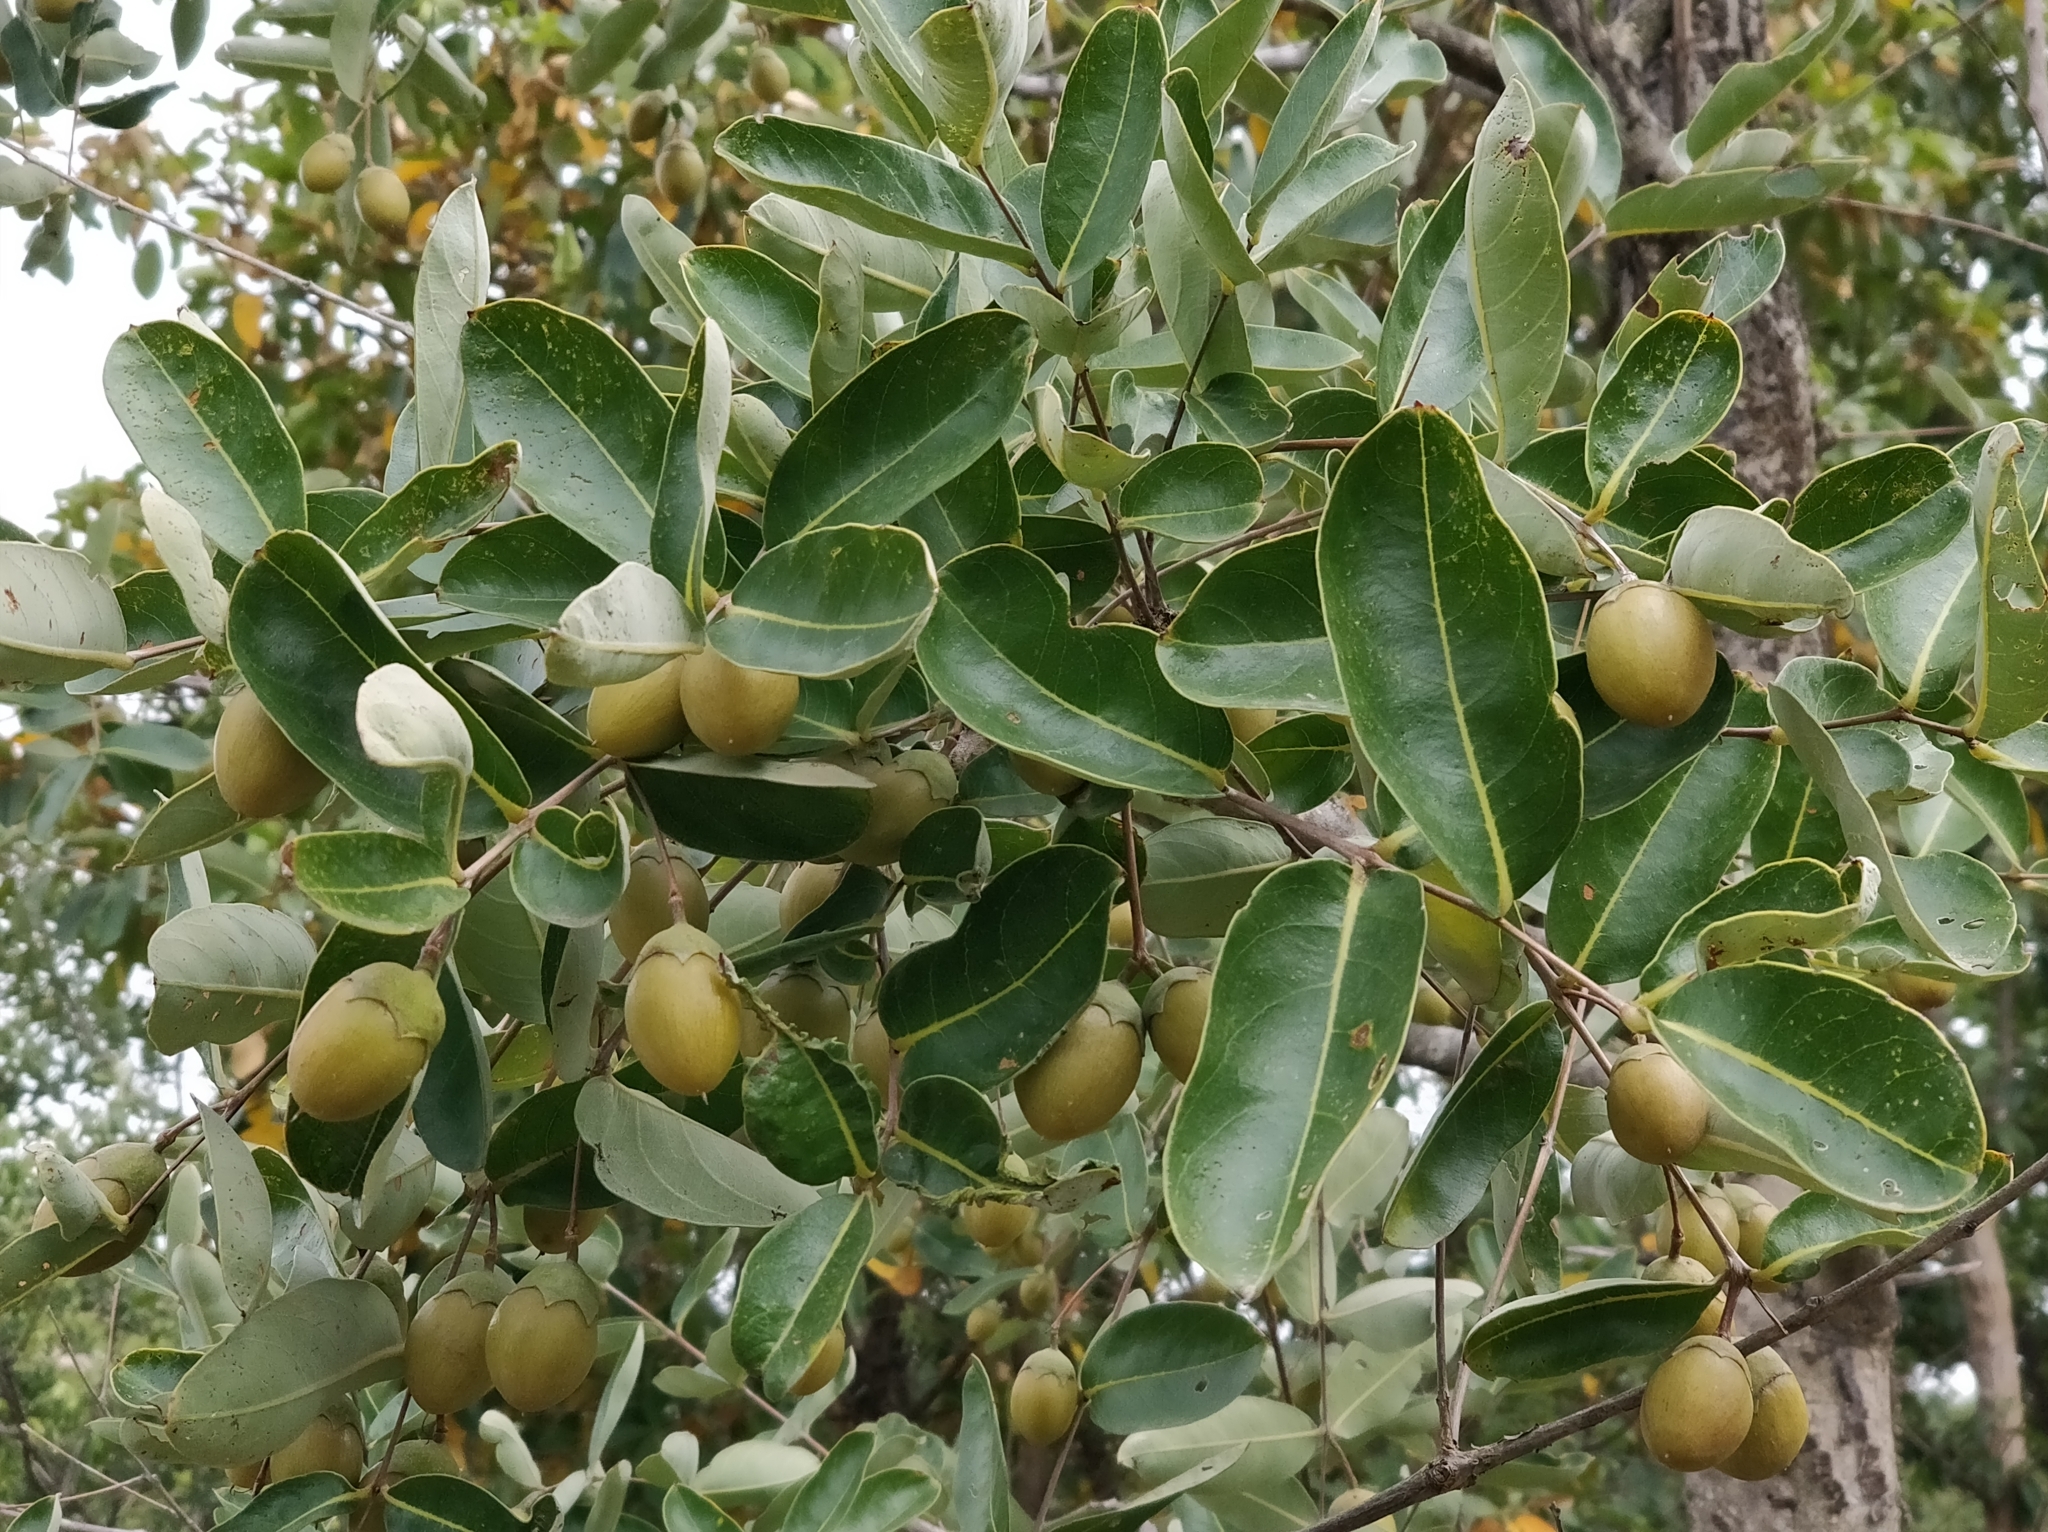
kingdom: Plantae
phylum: Tracheophyta
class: Magnoliopsida
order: Myrtales
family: Lythraceae
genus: Lagerstroemia
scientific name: Lagerstroemia parviflora
